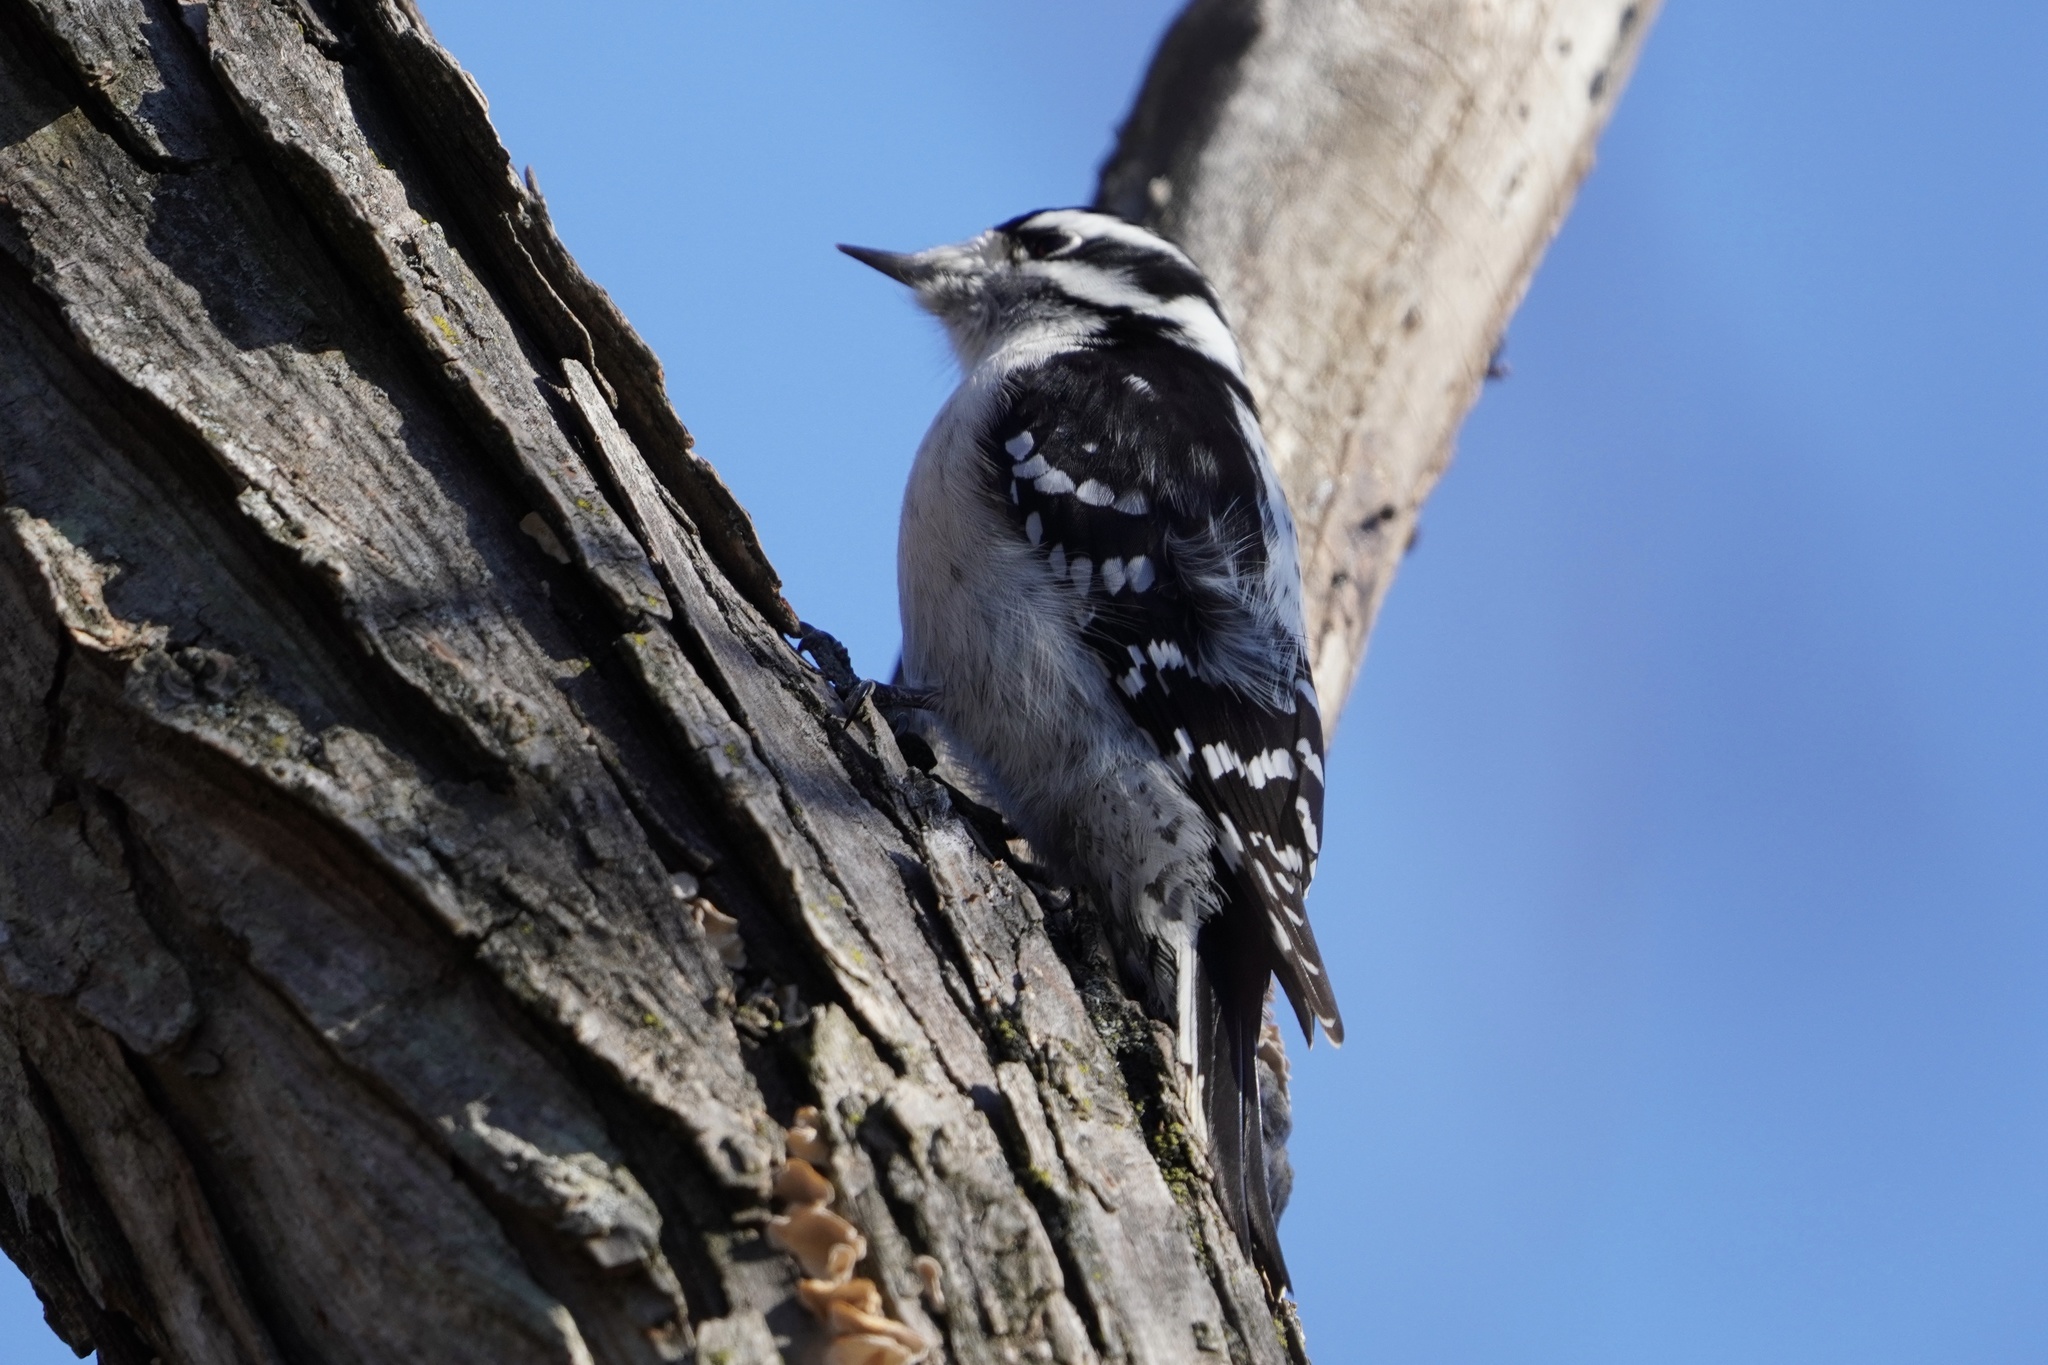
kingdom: Animalia
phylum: Chordata
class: Aves
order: Piciformes
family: Picidae
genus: Dryobates
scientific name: Dryobates pubescens
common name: Downy woodpecker
